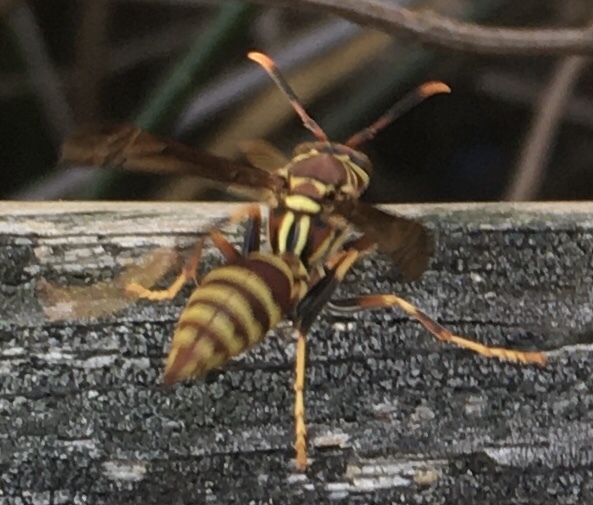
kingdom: Animalia
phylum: Arthropoda
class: Insecta
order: Hymenoptera
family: Eumenidae
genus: Polistes
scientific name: Polistes exclamans
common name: Paper wasp
